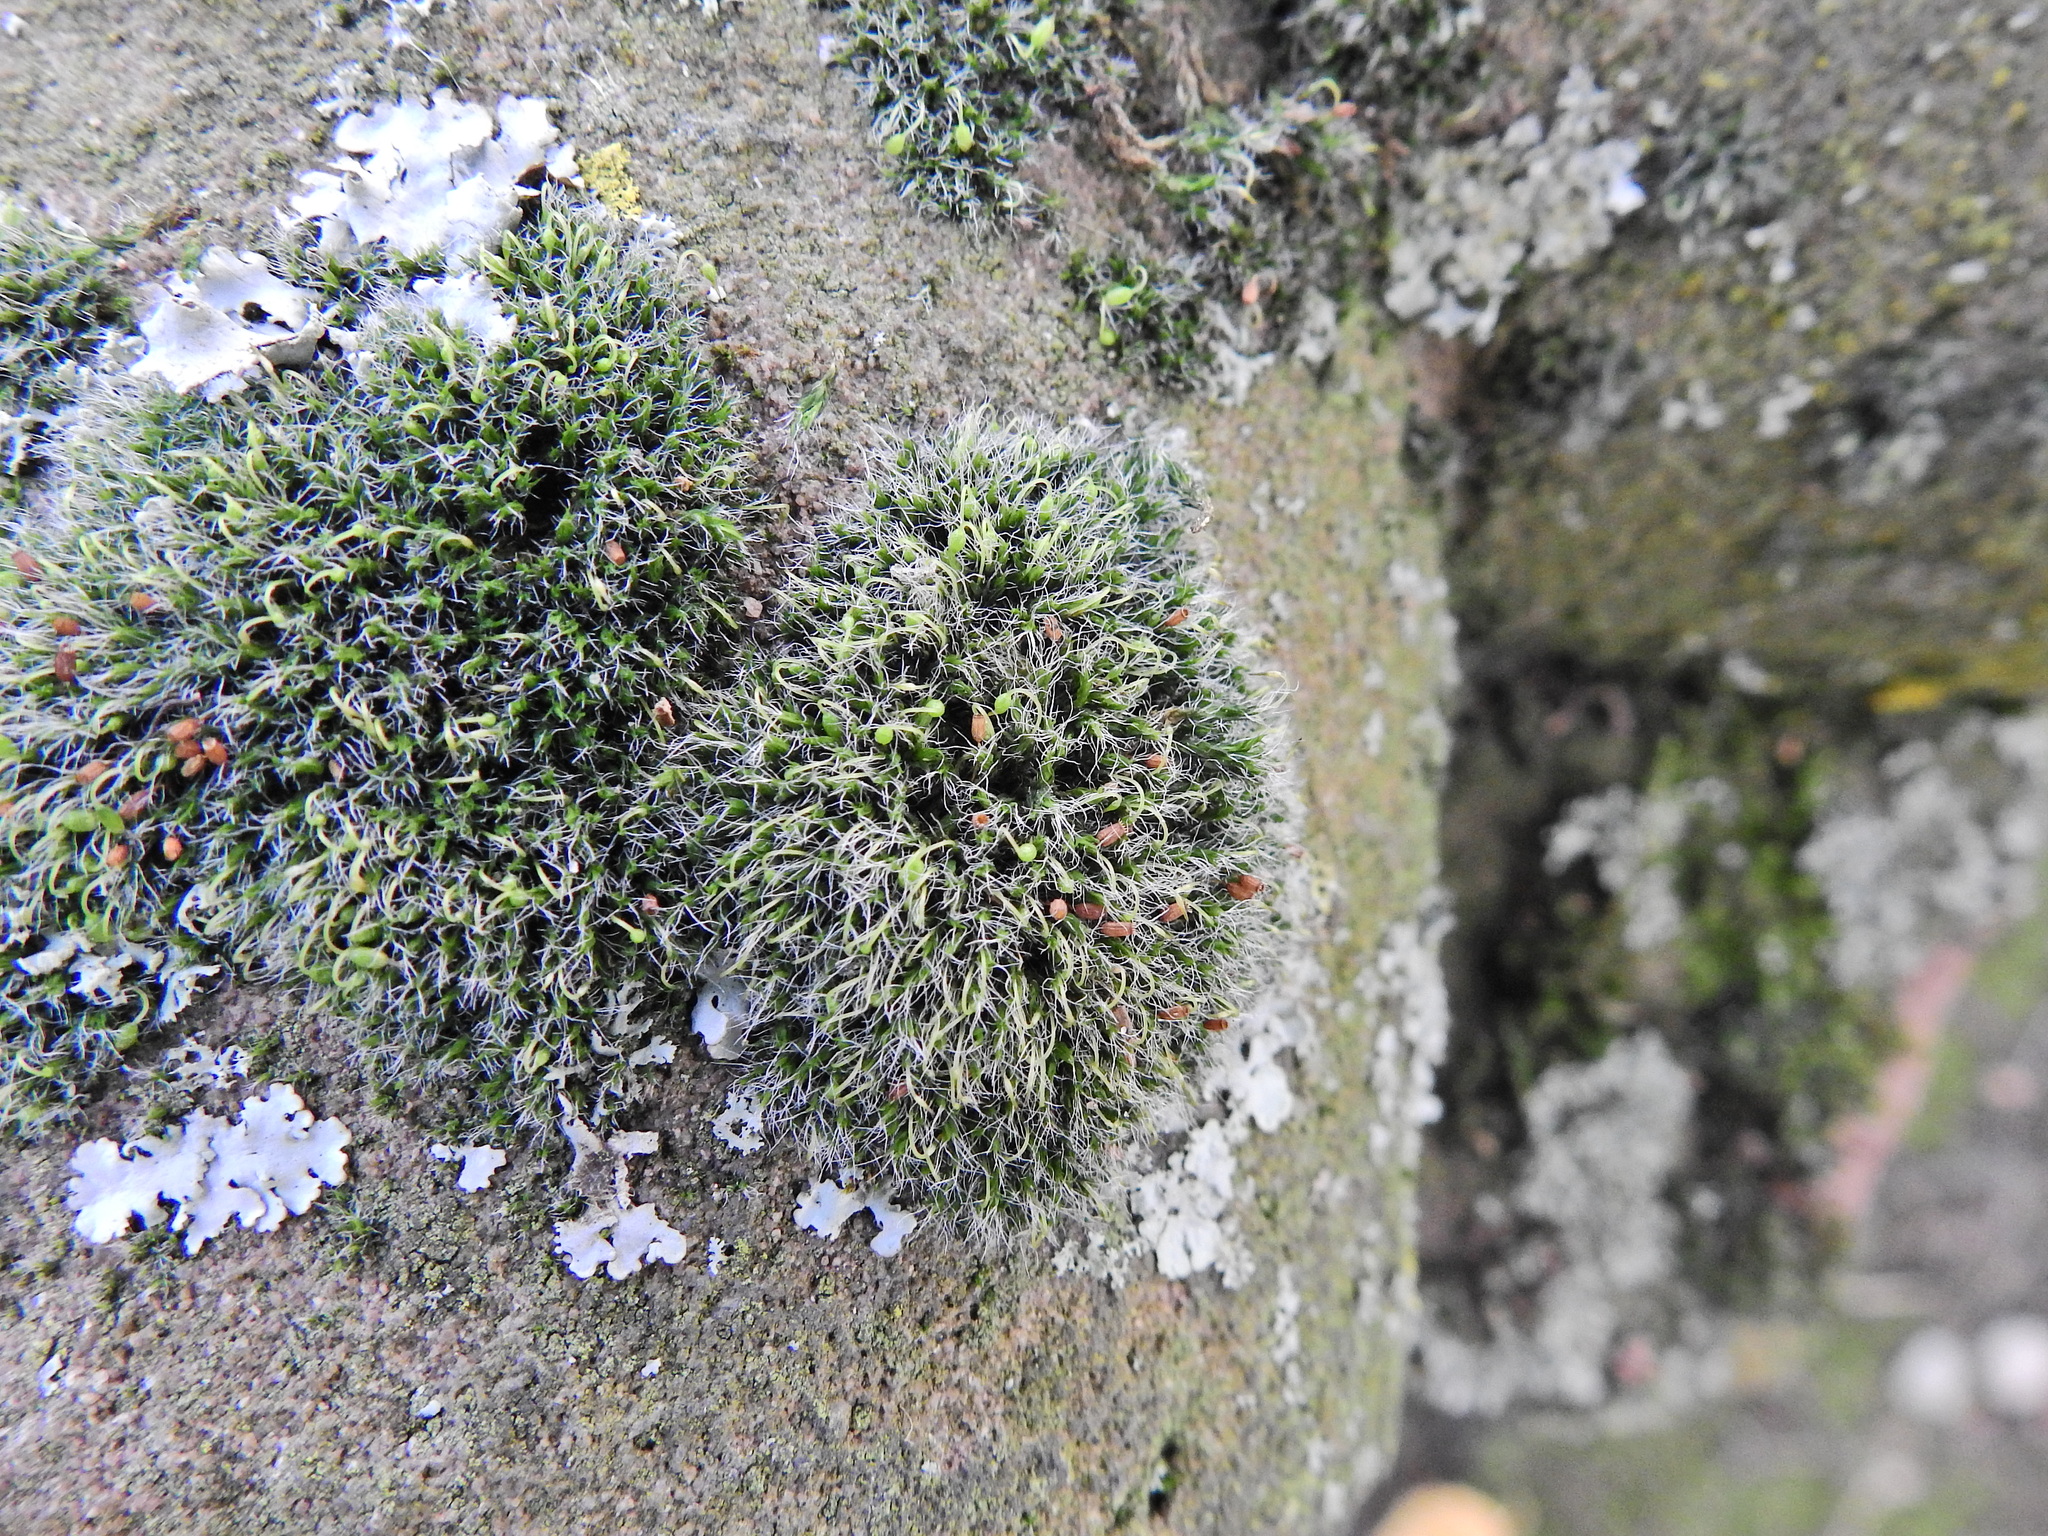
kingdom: Plantae
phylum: Bryophyta
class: Bryopsida
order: Grimmiales
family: Grimmiaceae
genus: Grimmia
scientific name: Grimmia pulvinata
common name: Grey-cushioned grimmia
